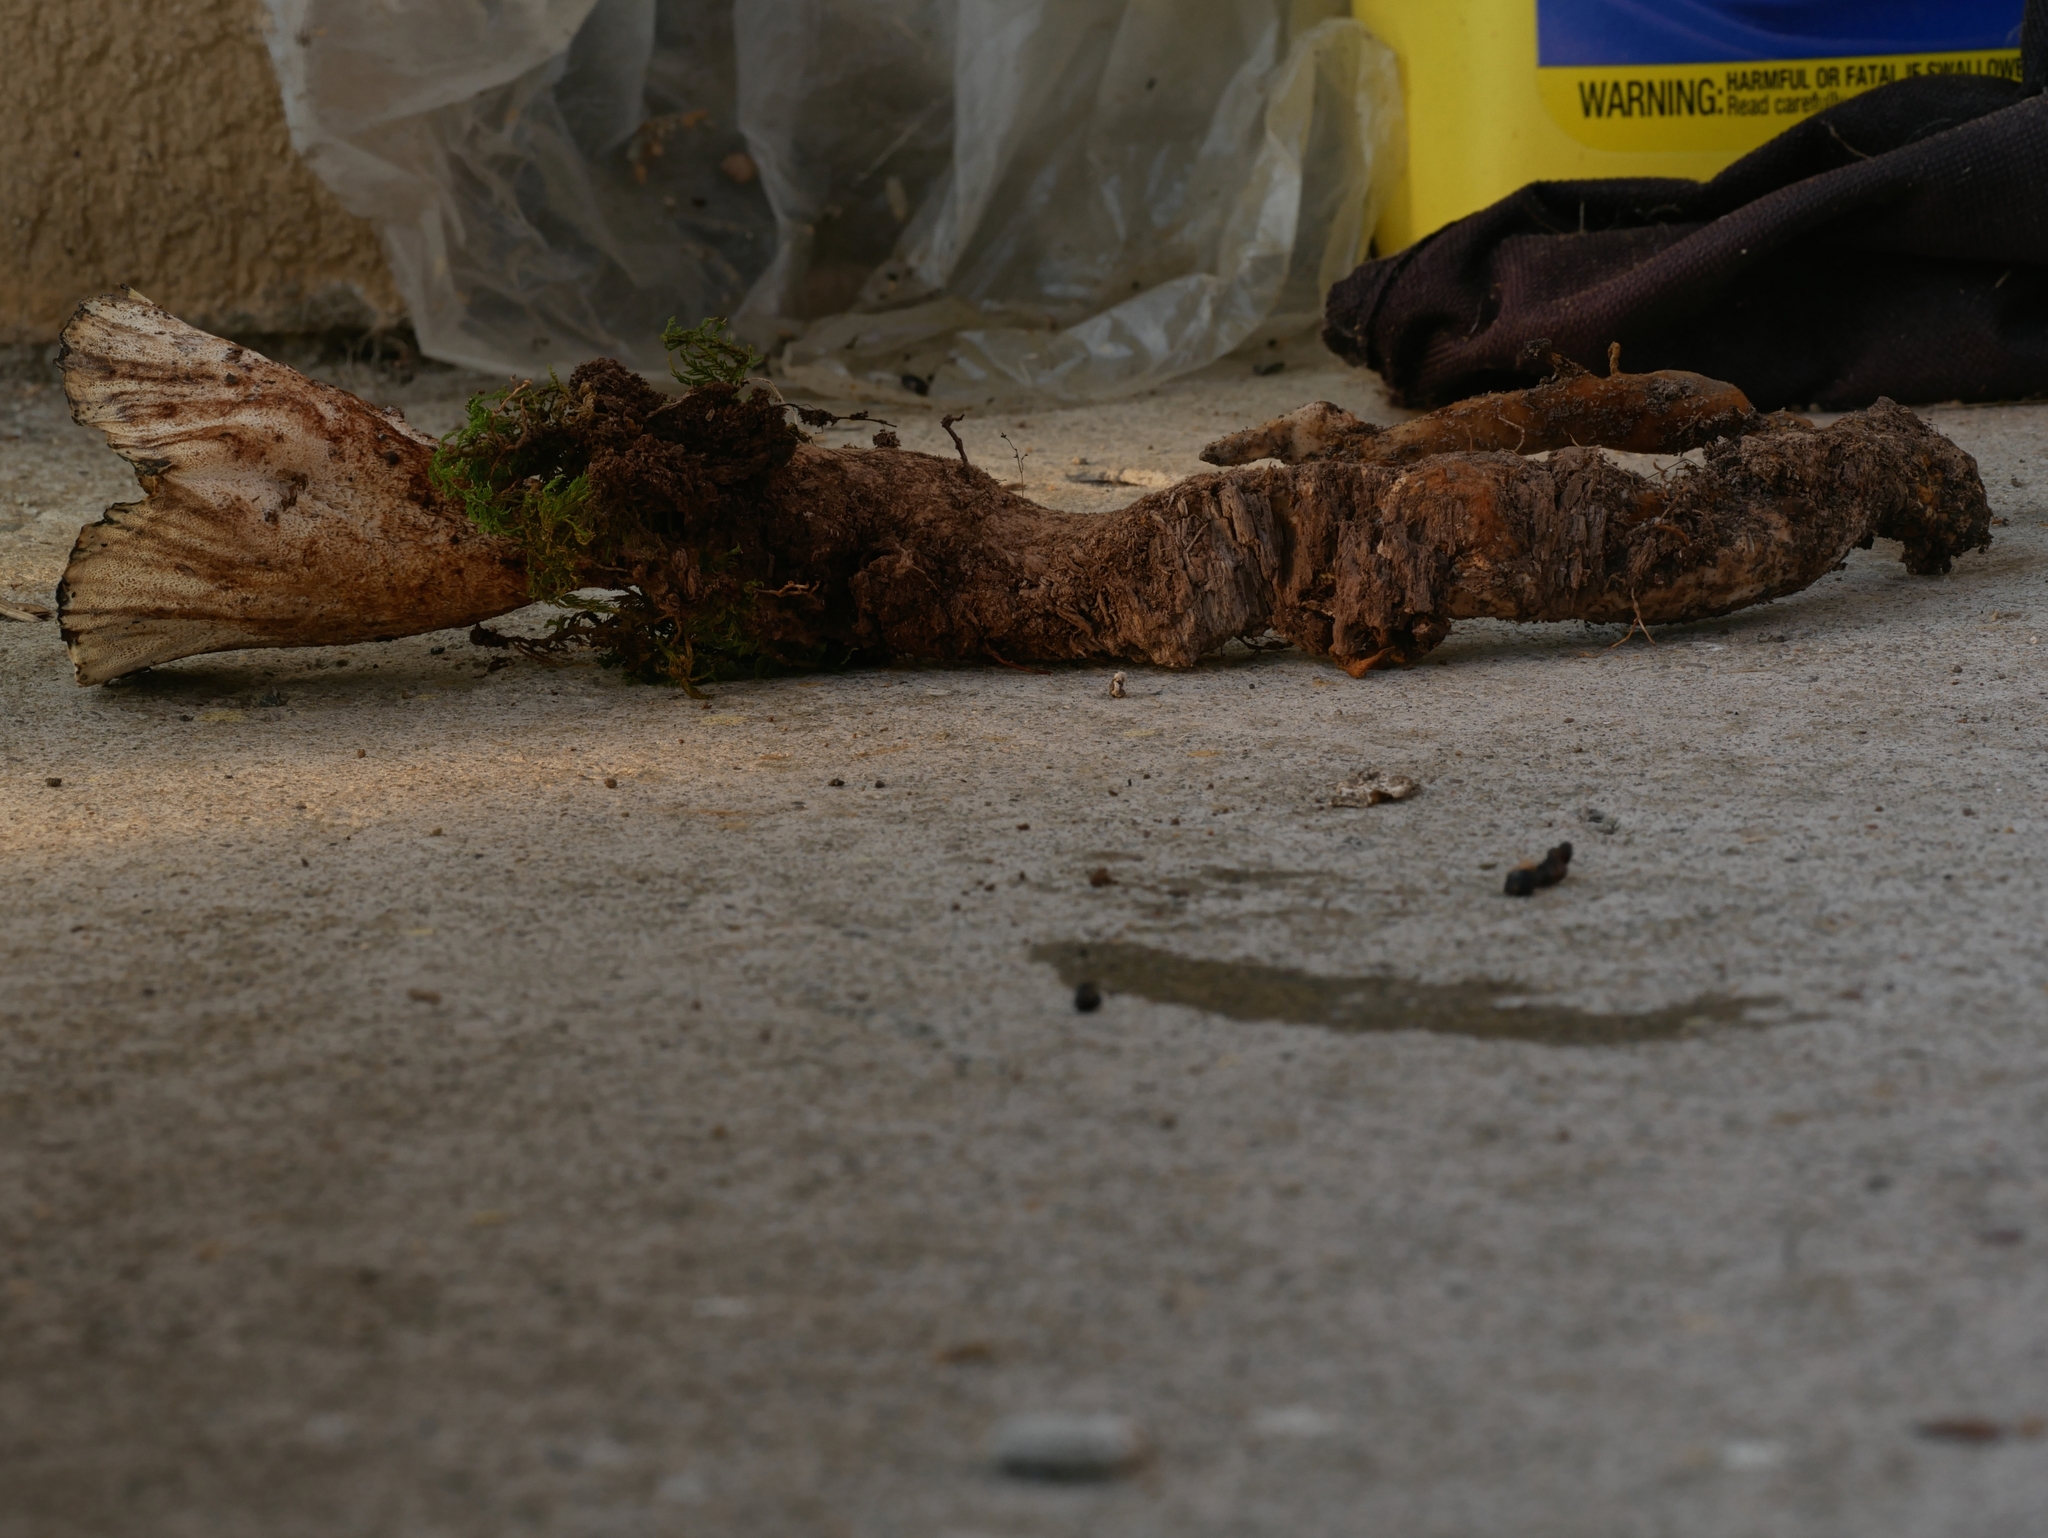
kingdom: Fungi
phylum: Basidiomycota
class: Agaricomycetes
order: Polyporales
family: Podoscyphaceae
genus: Abortiporus
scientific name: Abortiporus biennis
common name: Blushing rosette
